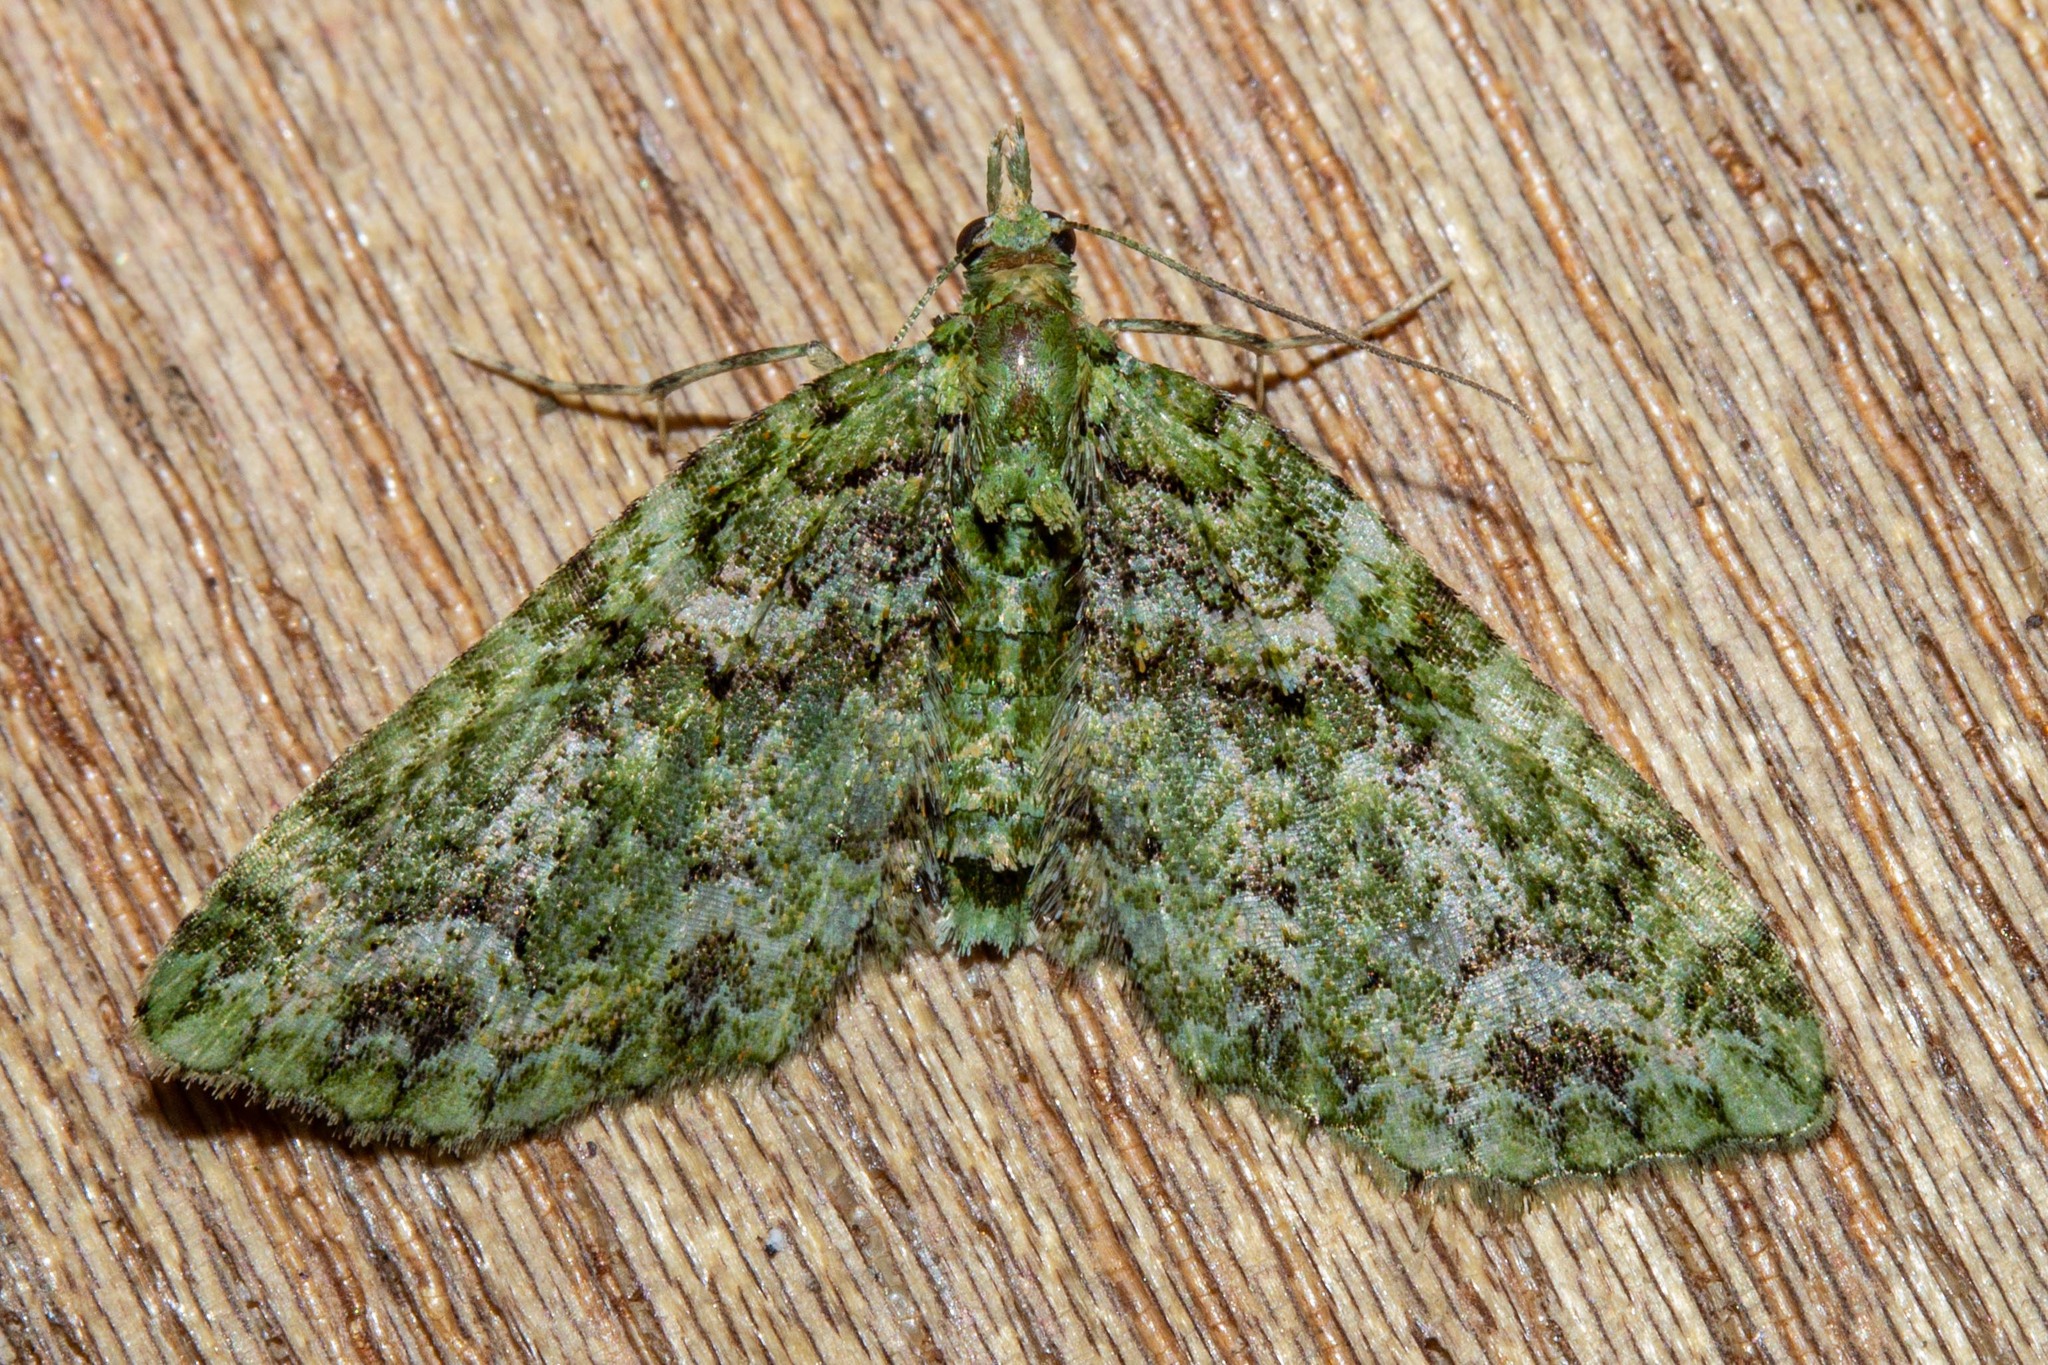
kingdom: Animalia
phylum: Arthropoda
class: Insecta
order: Lepidoptera
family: Geometridae
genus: Pasiphila
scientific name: Pasiphila muscosata
